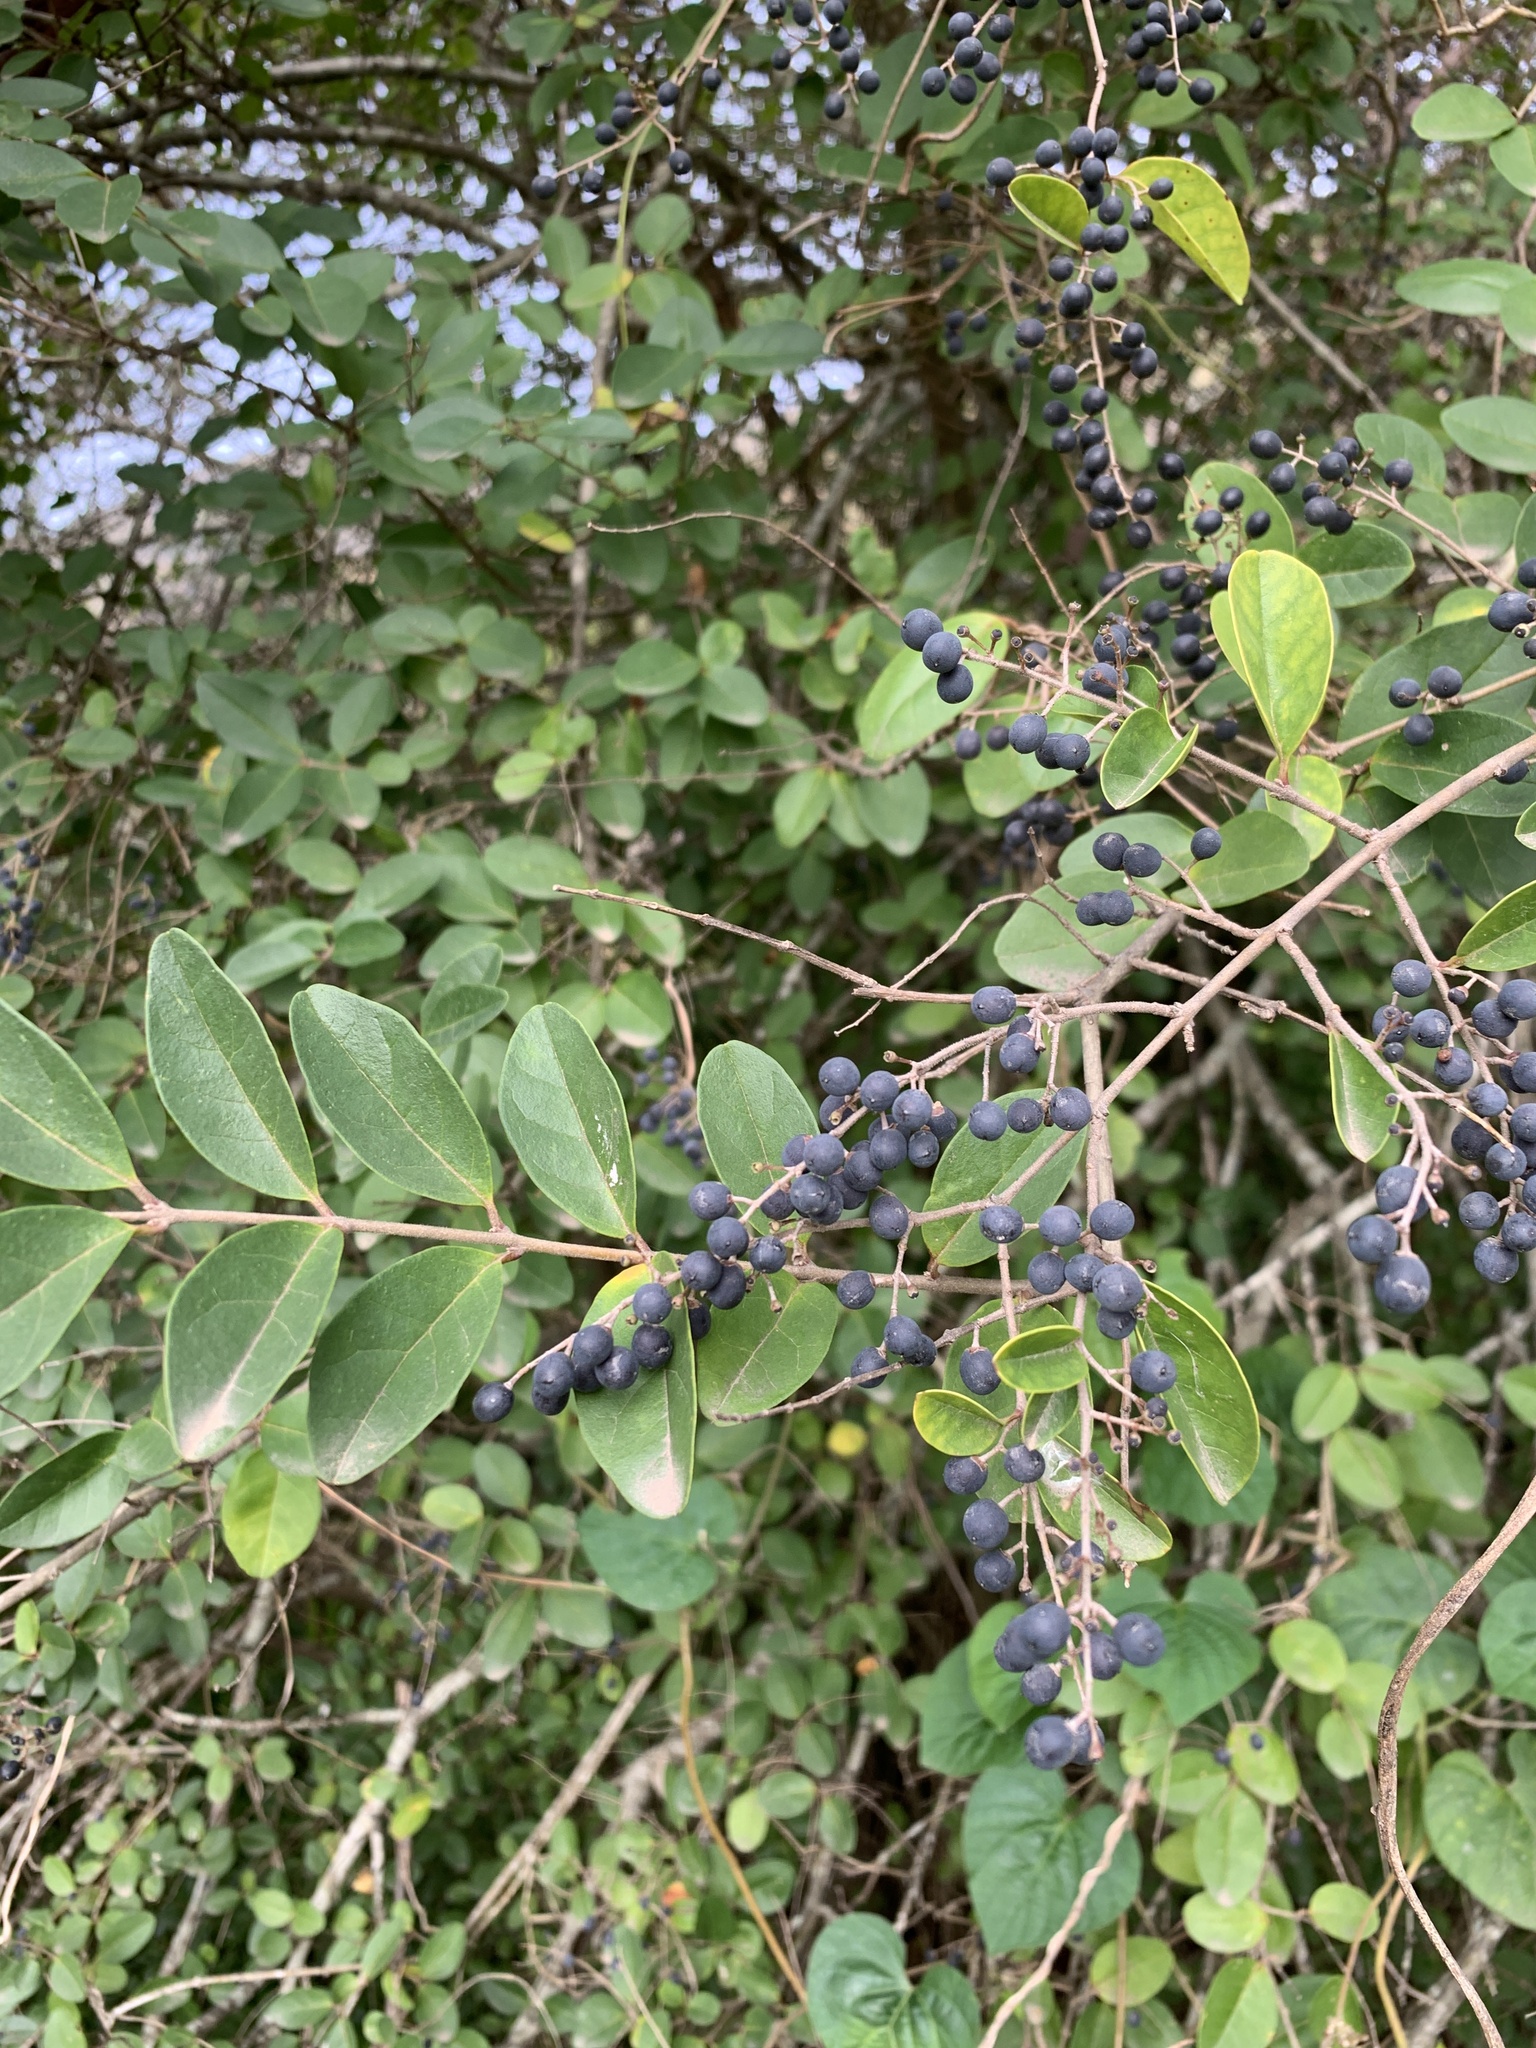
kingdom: Plantae
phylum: Tracheophyta
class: Magnoliopsida
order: Lamiales
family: Oleaceae
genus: Ligustrum
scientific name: Ligustrum sinense
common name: Chinese privet
